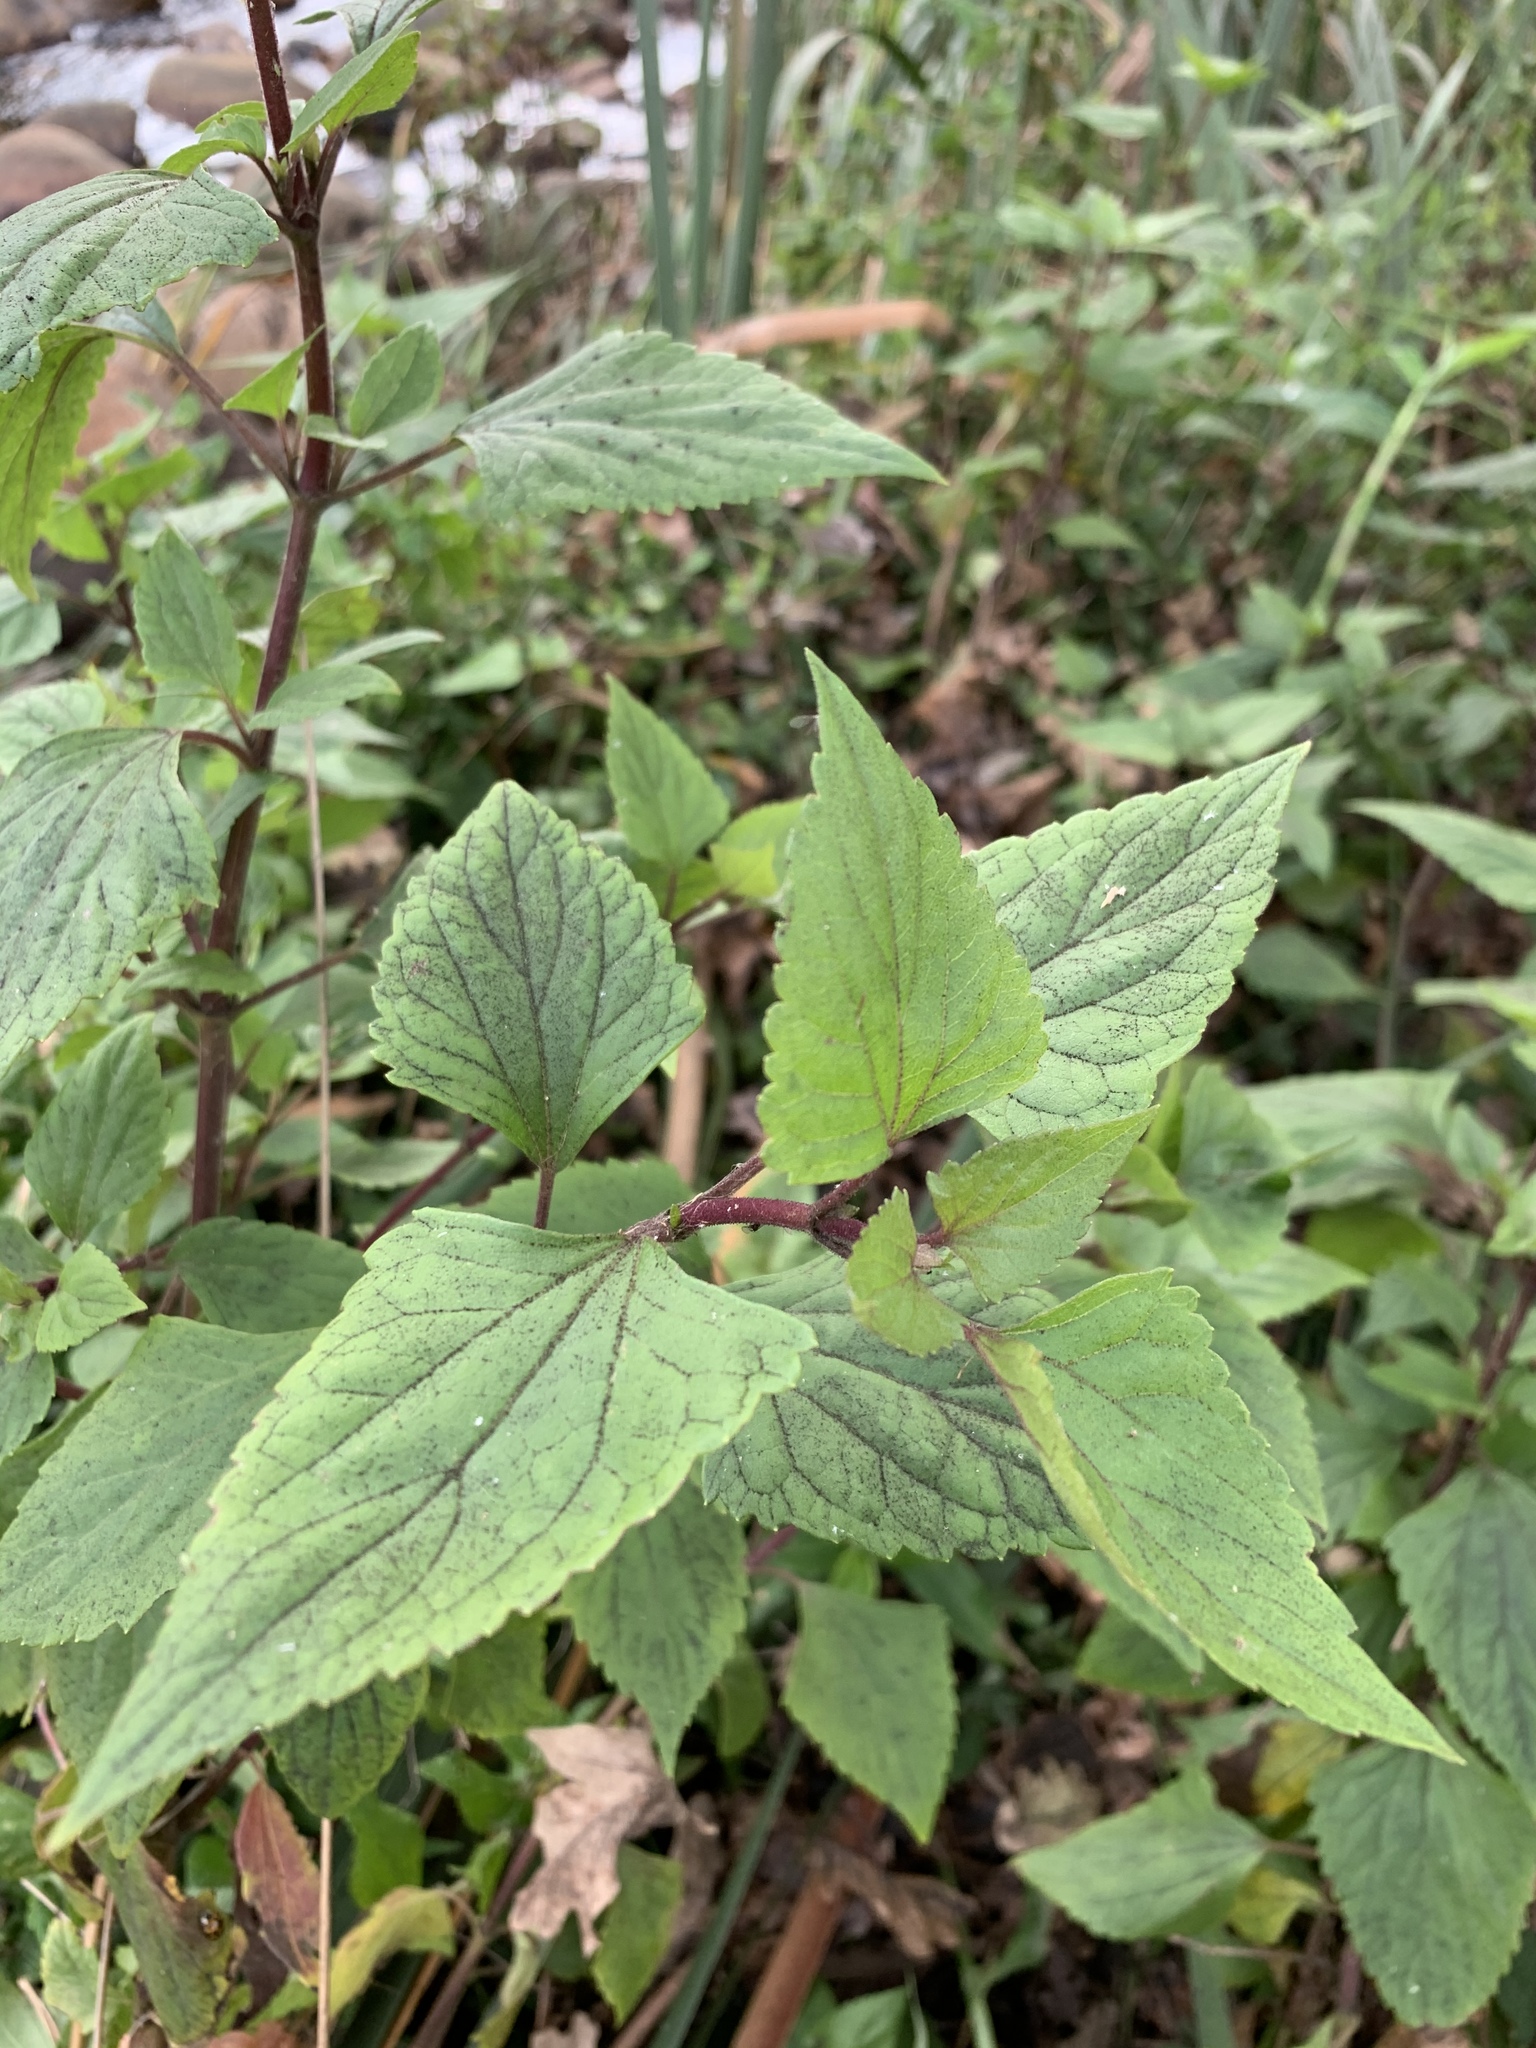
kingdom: Plantae
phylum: Tracheophyta
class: Magnoliopsida
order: Asterales
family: Asteraceae
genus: Ageratina
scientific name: Ageratina adenophora
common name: Sticky snakeroot
